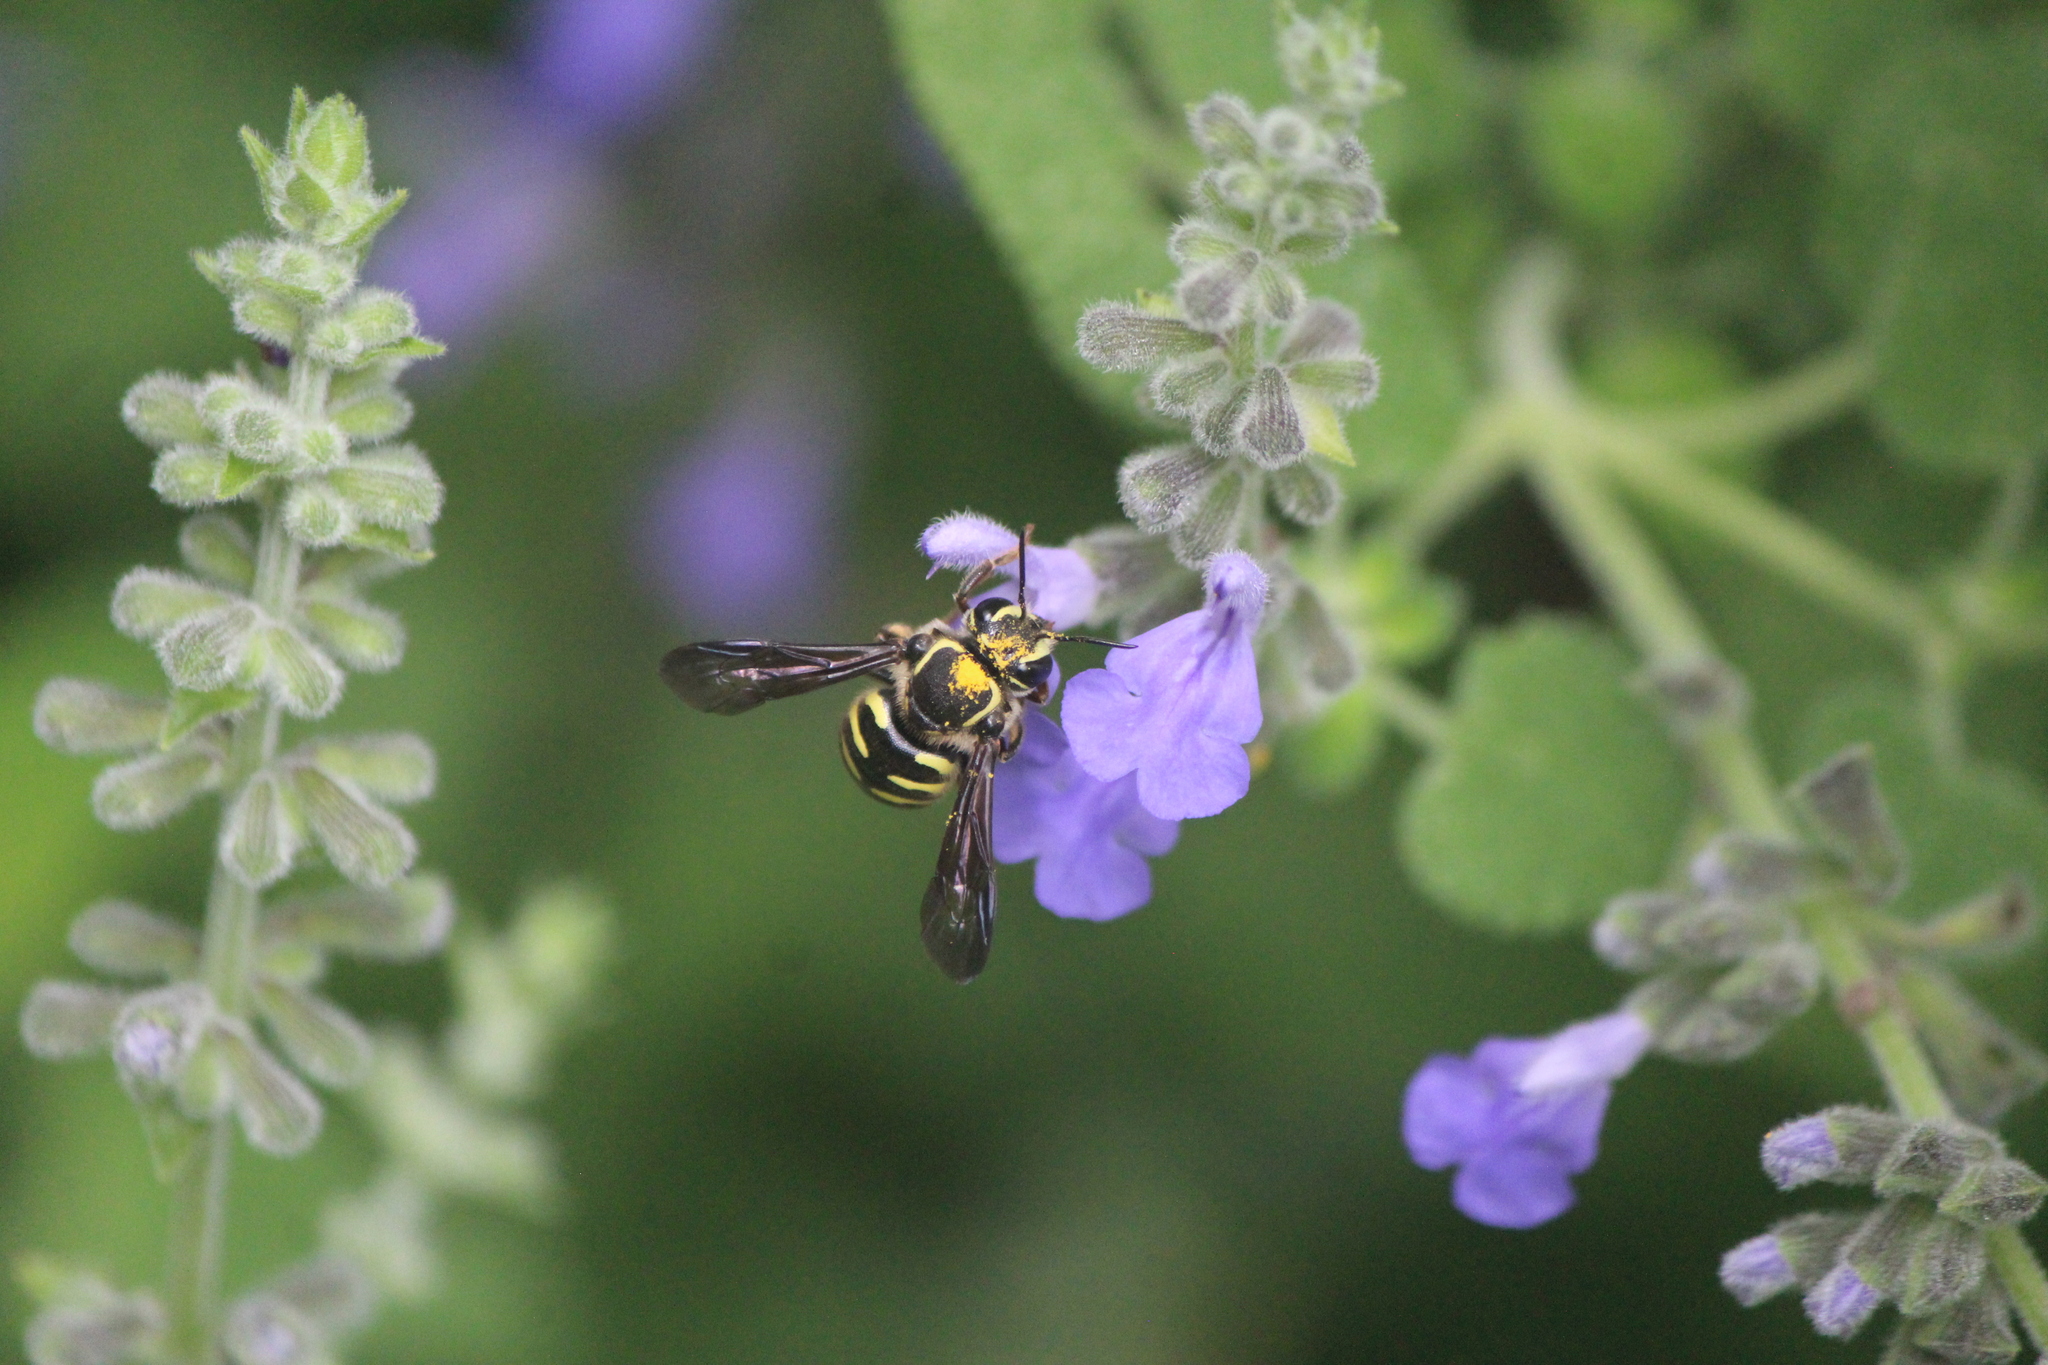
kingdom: Animalia
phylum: Arthropoda
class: Insecta
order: Hymenoptera
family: Megachilidae
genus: Paranthidium
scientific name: Paranthidium gabbii
